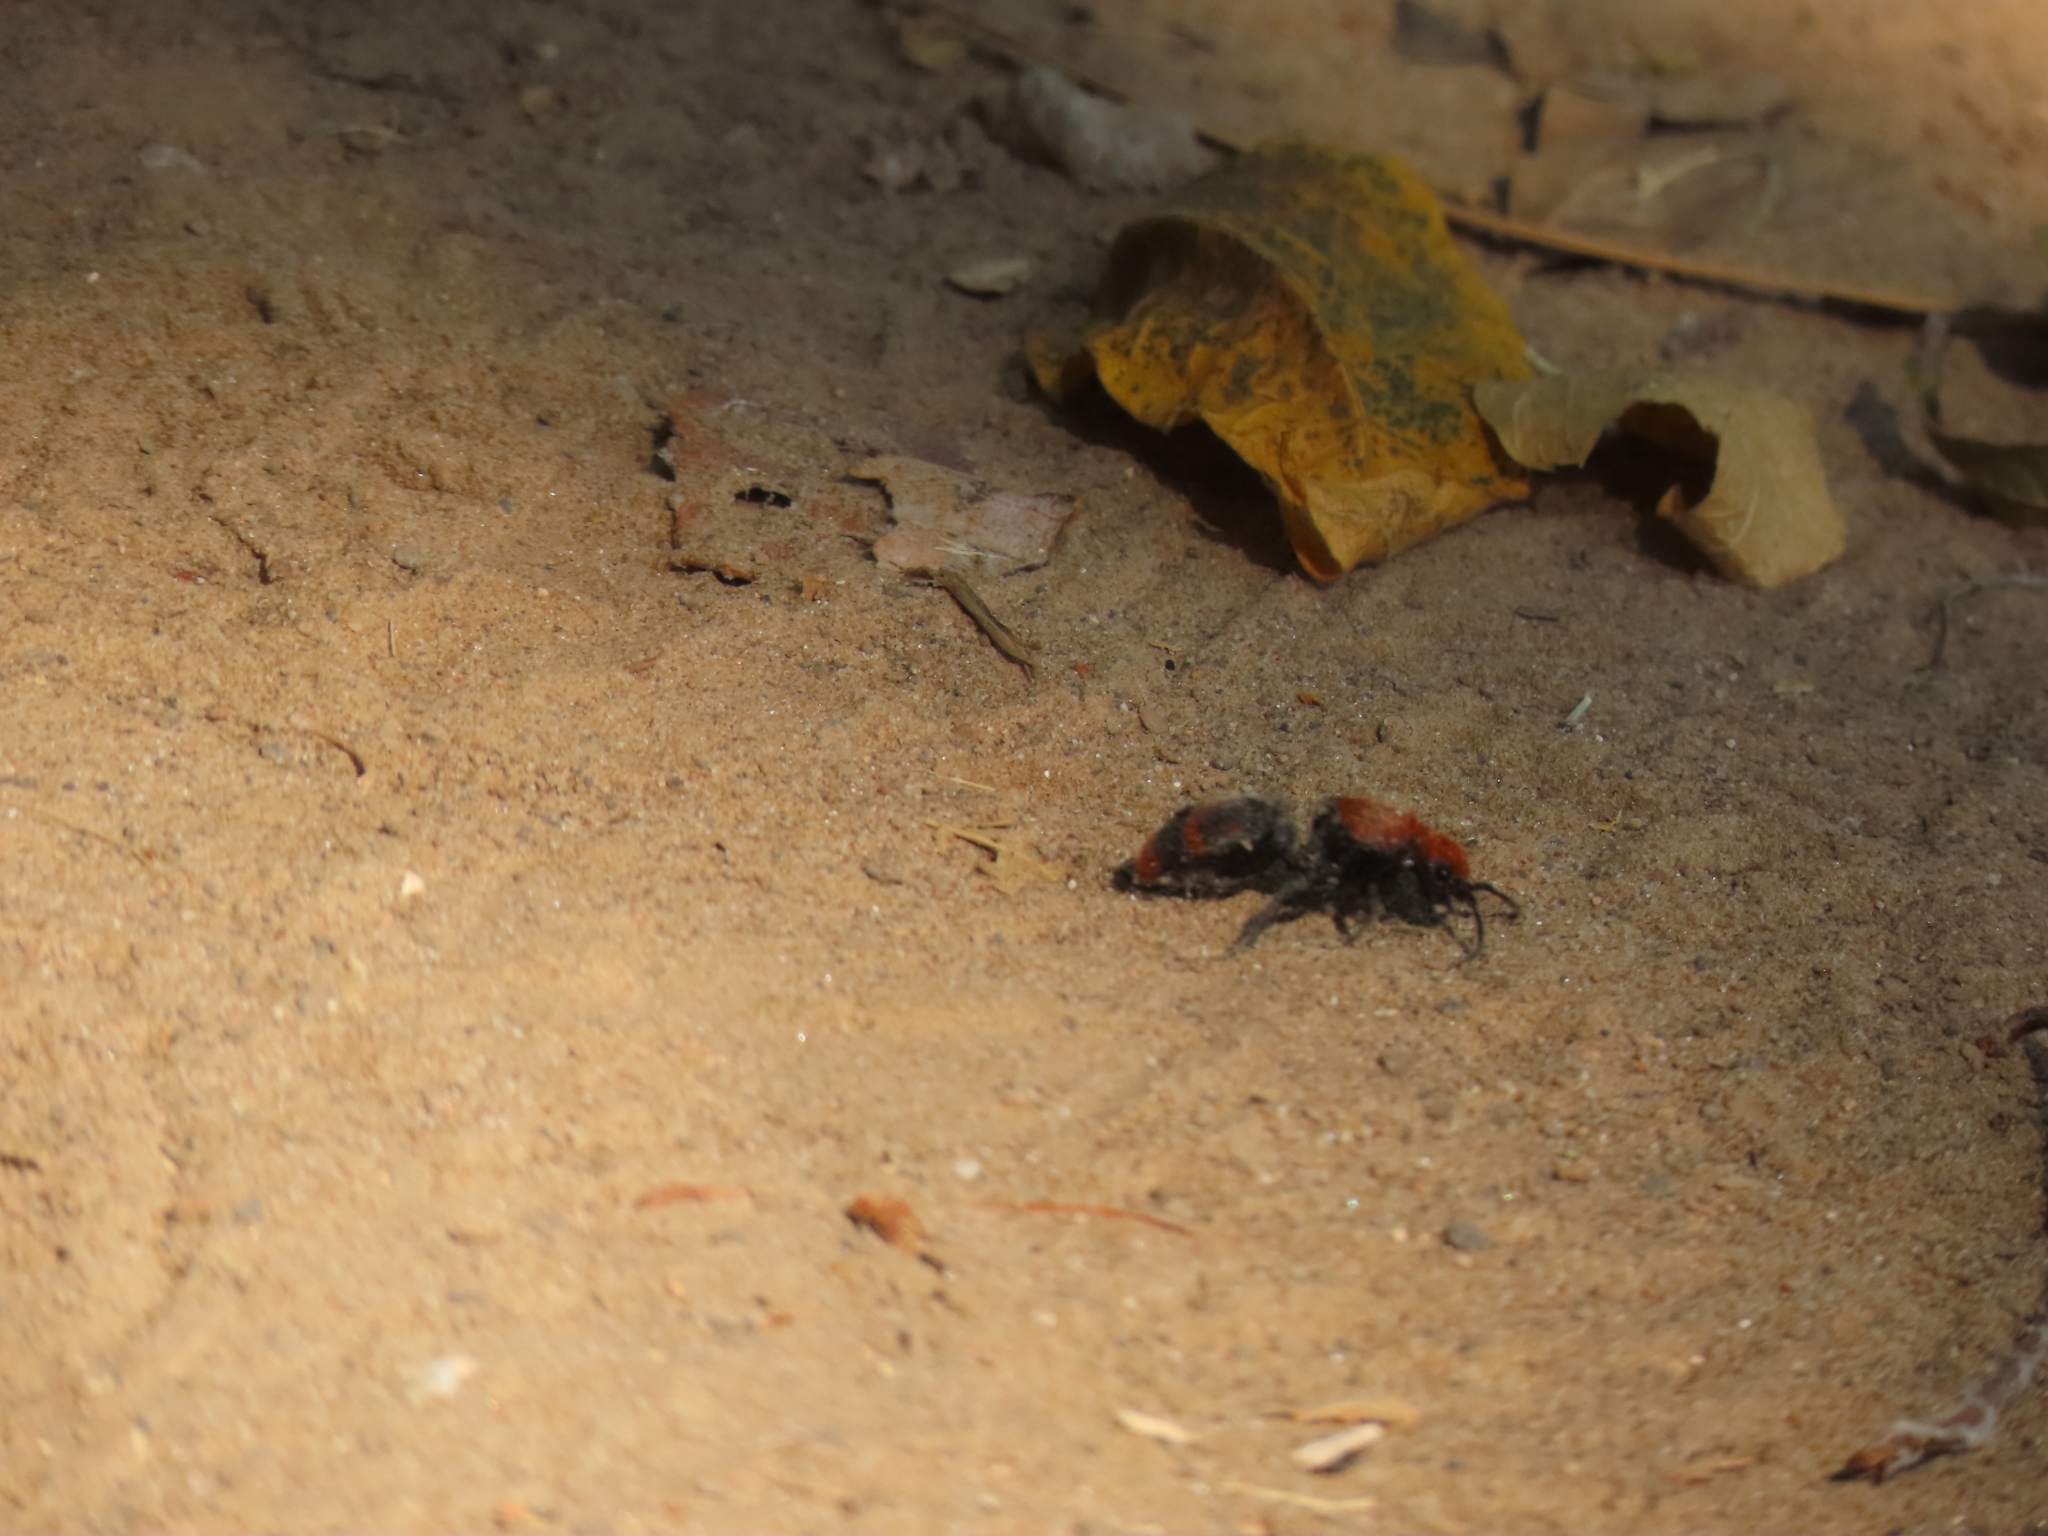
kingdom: Animalia
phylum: Arthropoda
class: Insecta
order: Hymenoptera
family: Mutillidae
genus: Dasymutilla
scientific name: Dasymutilla occidentalis
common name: Common eastern velvet ant
